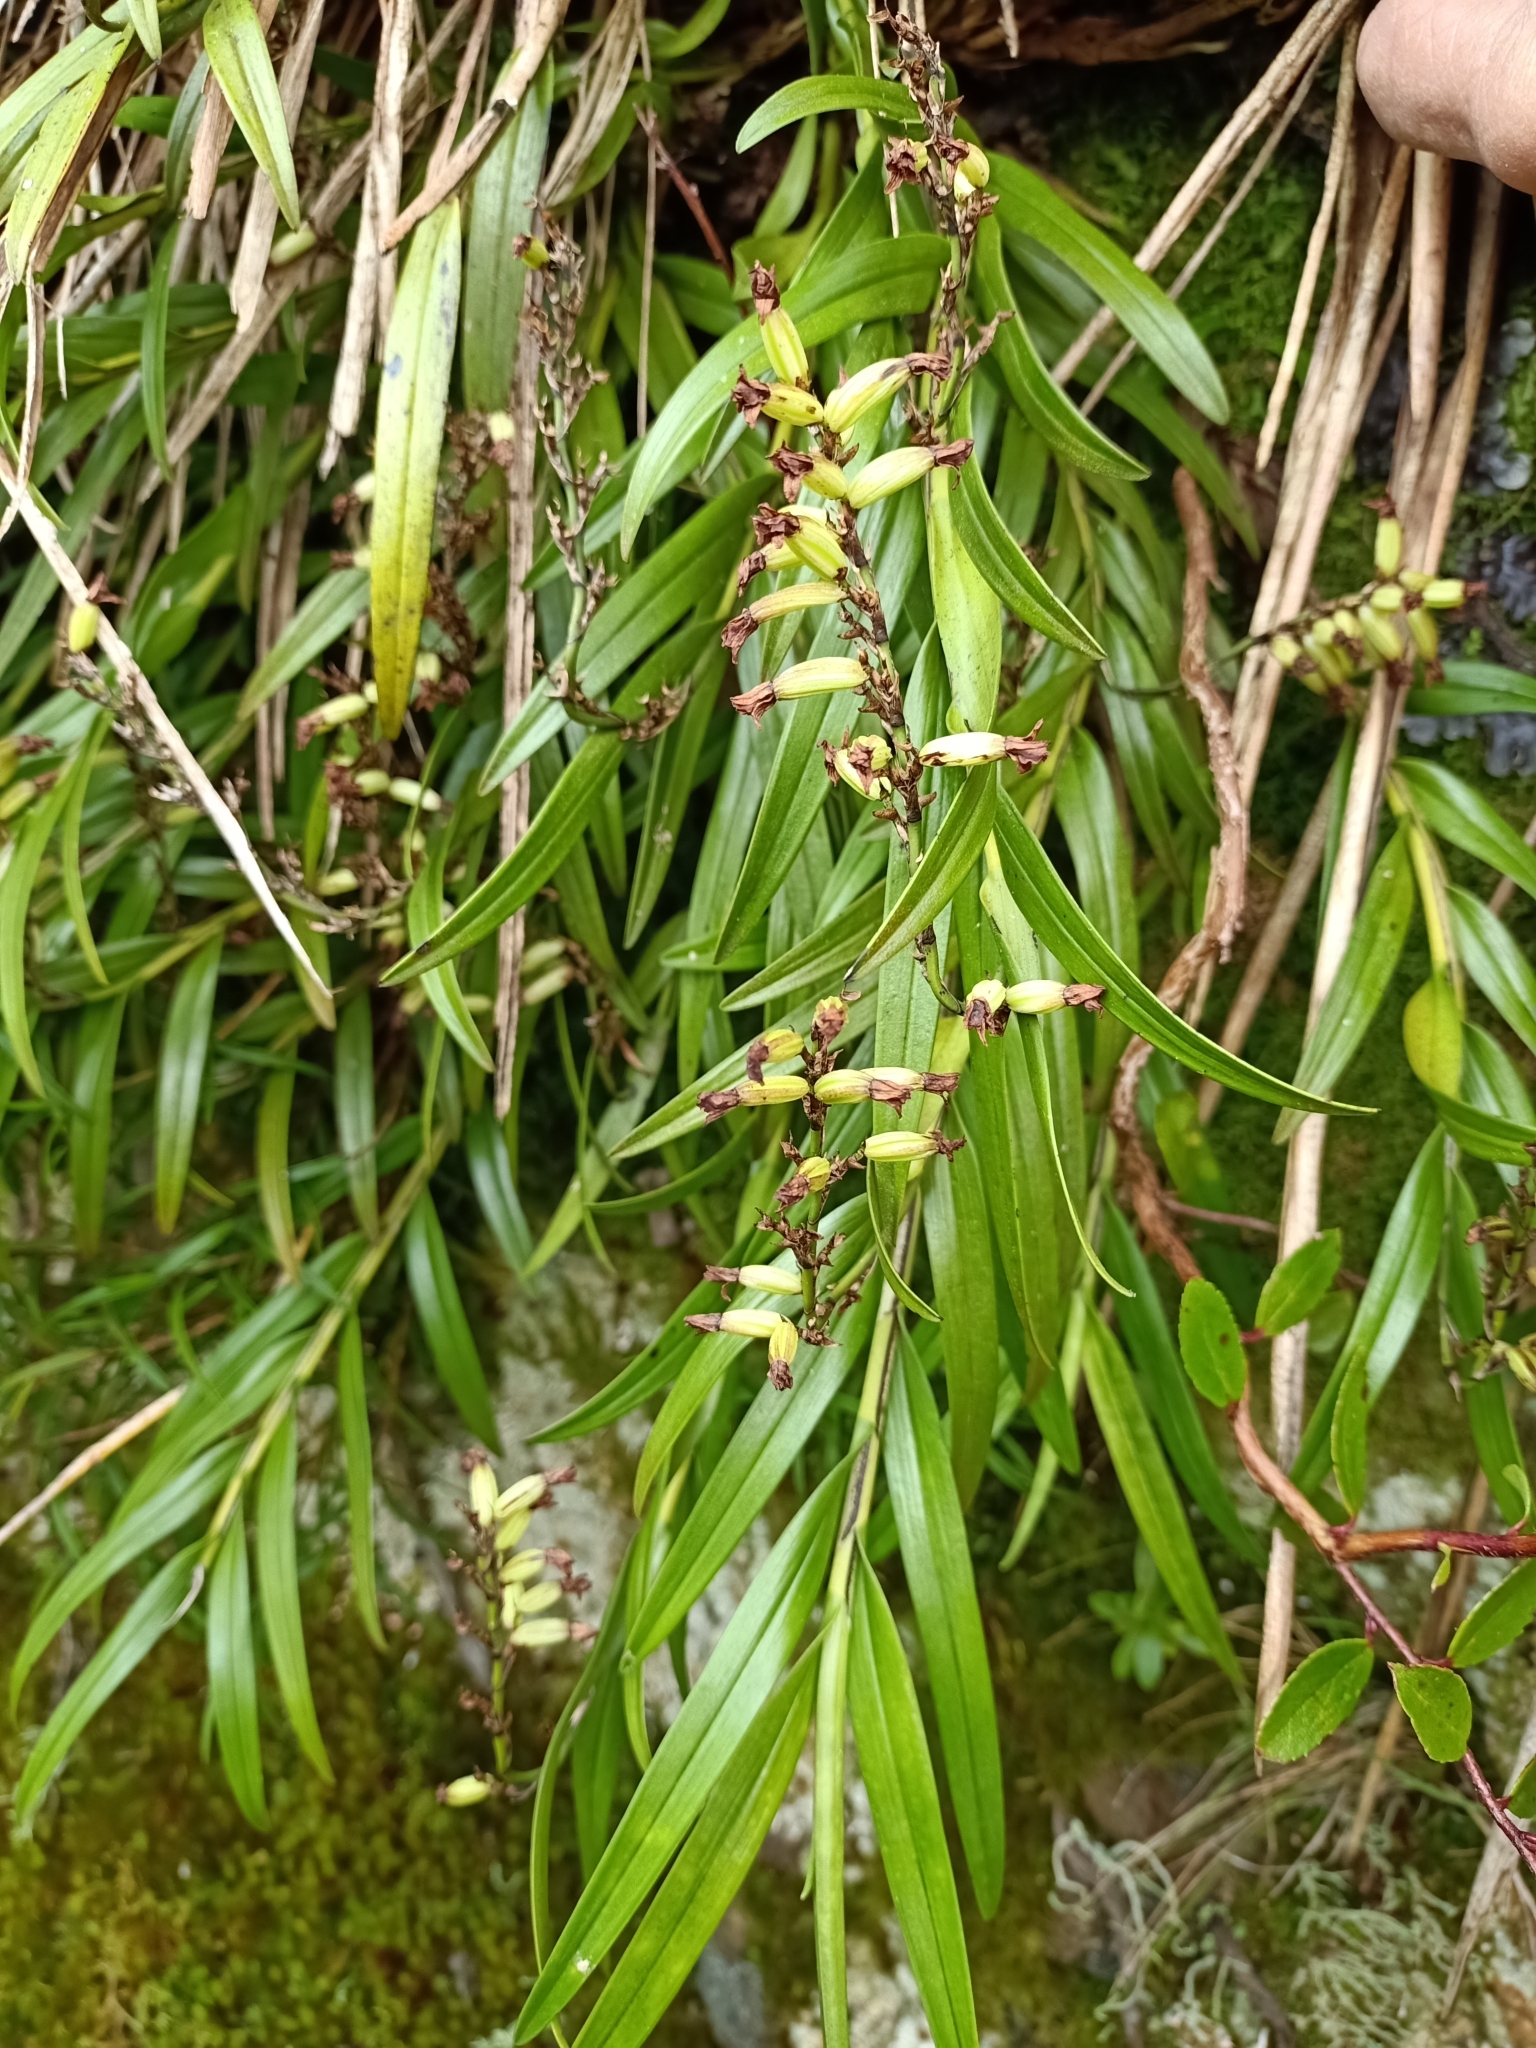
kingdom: Plantae
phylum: Tracheophyta
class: Liliopsida
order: Asparagales
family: Orchidaceae
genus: Earina
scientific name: Earina autumnalis
